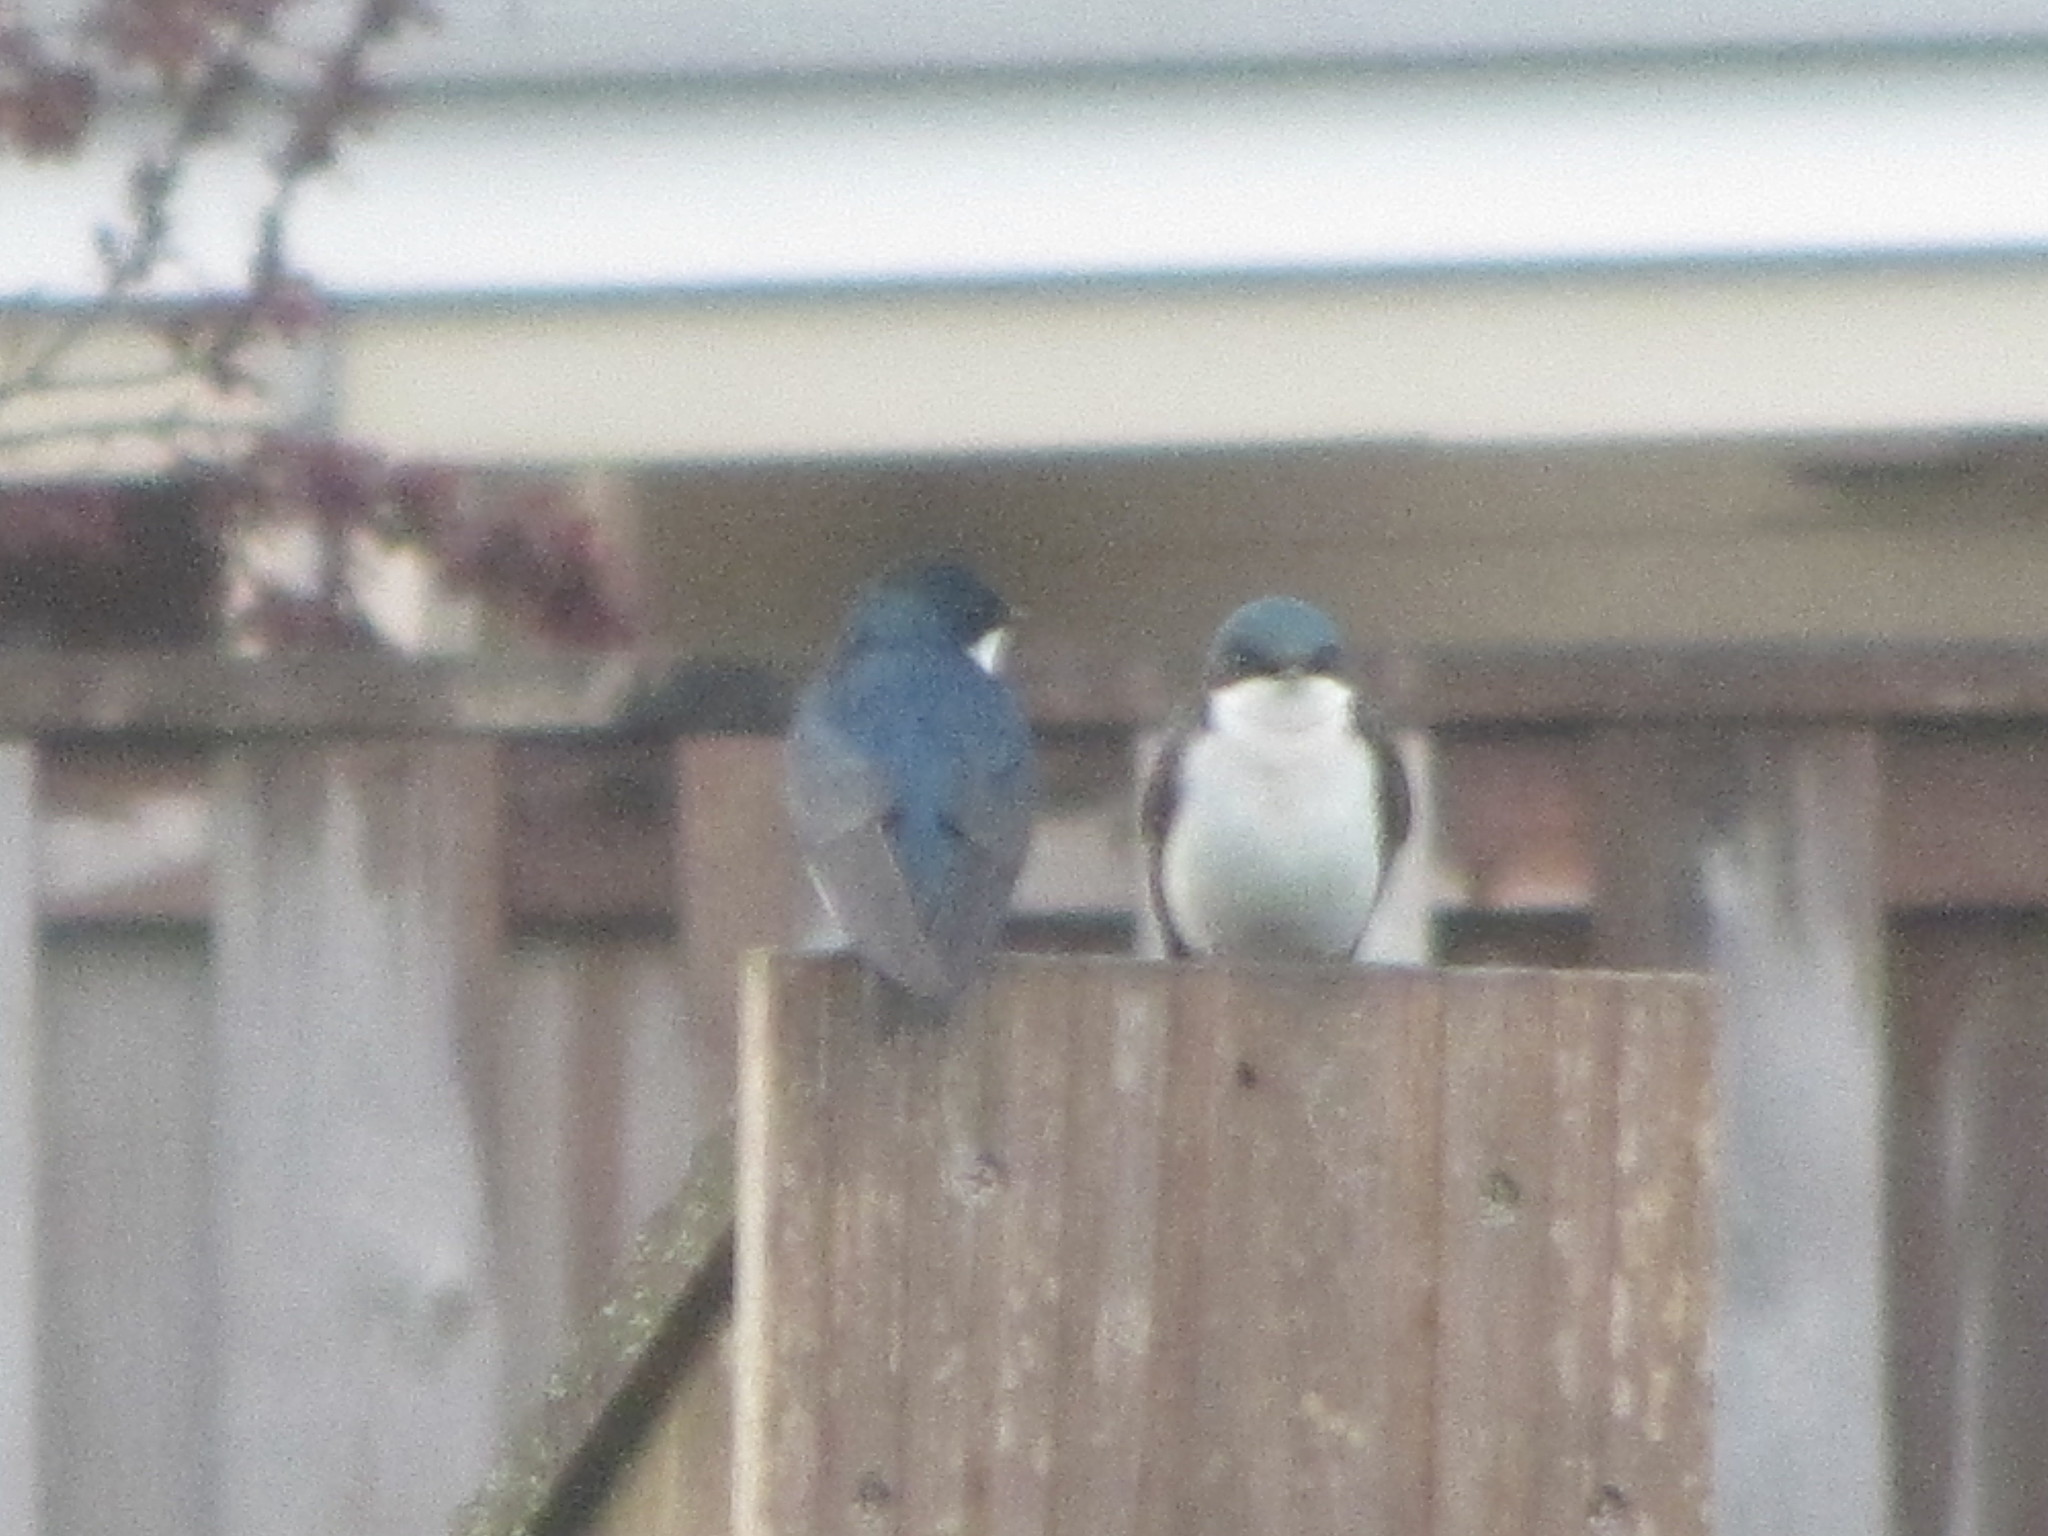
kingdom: Animalia
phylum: Chordata
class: Aves
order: Passeriformes
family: Hirundinidae
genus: Tachycineta
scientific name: Tachycineta bicolor
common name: Tree swallow
